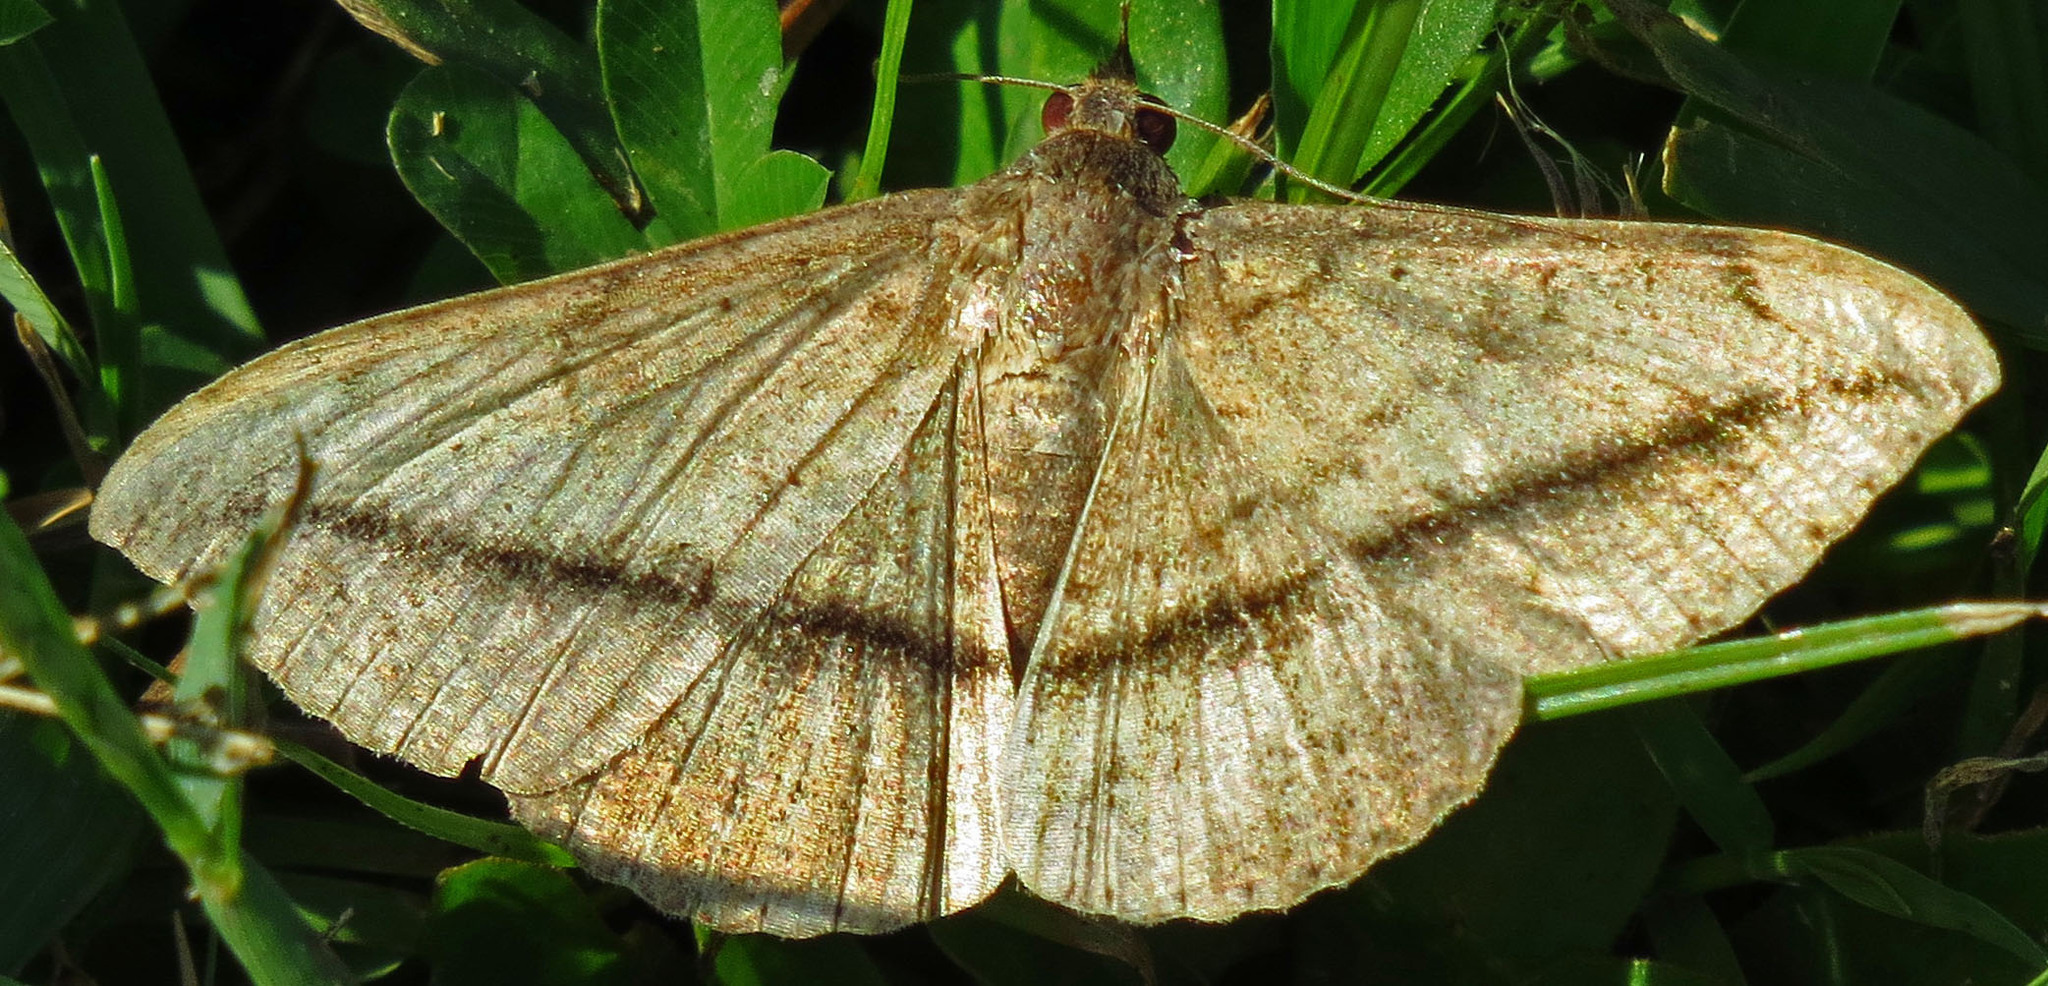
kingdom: Animalia
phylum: Arthropoda
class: Insecta
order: Lepidoptera
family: Erebidae
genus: Anticarsia
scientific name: Anticarsia gemmatalis
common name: Cutworm moth
